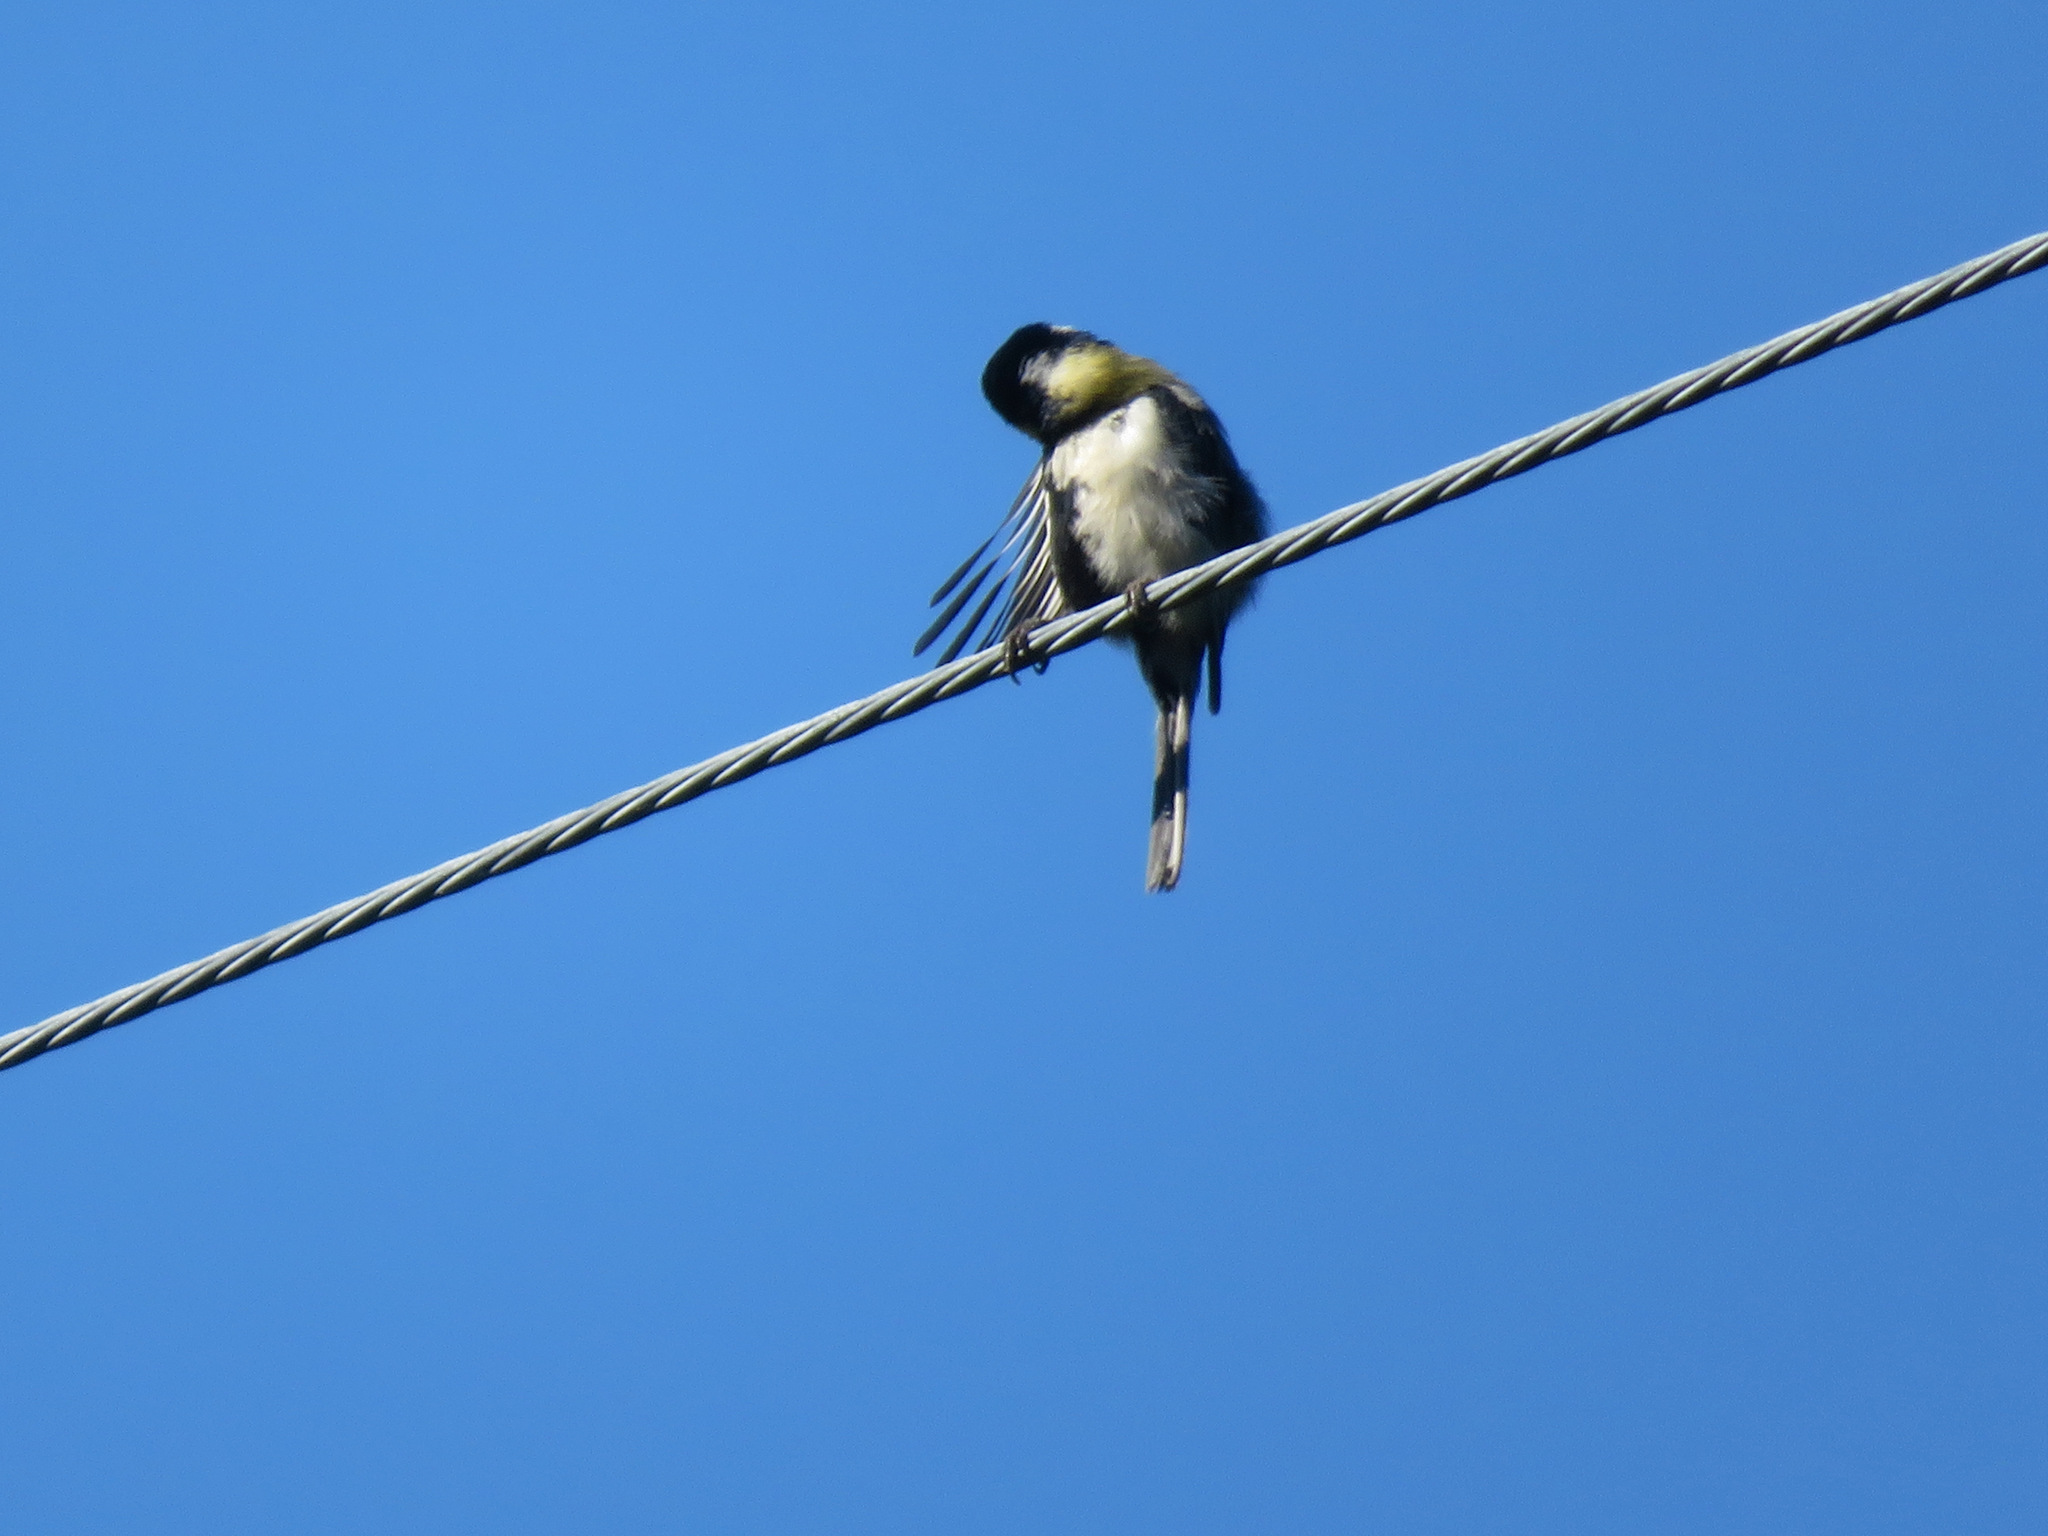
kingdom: Animalia
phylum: Chordata
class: Aves
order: Passeriformes
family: Paridae
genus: Parus
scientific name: Parus minor
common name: Japanese tit
